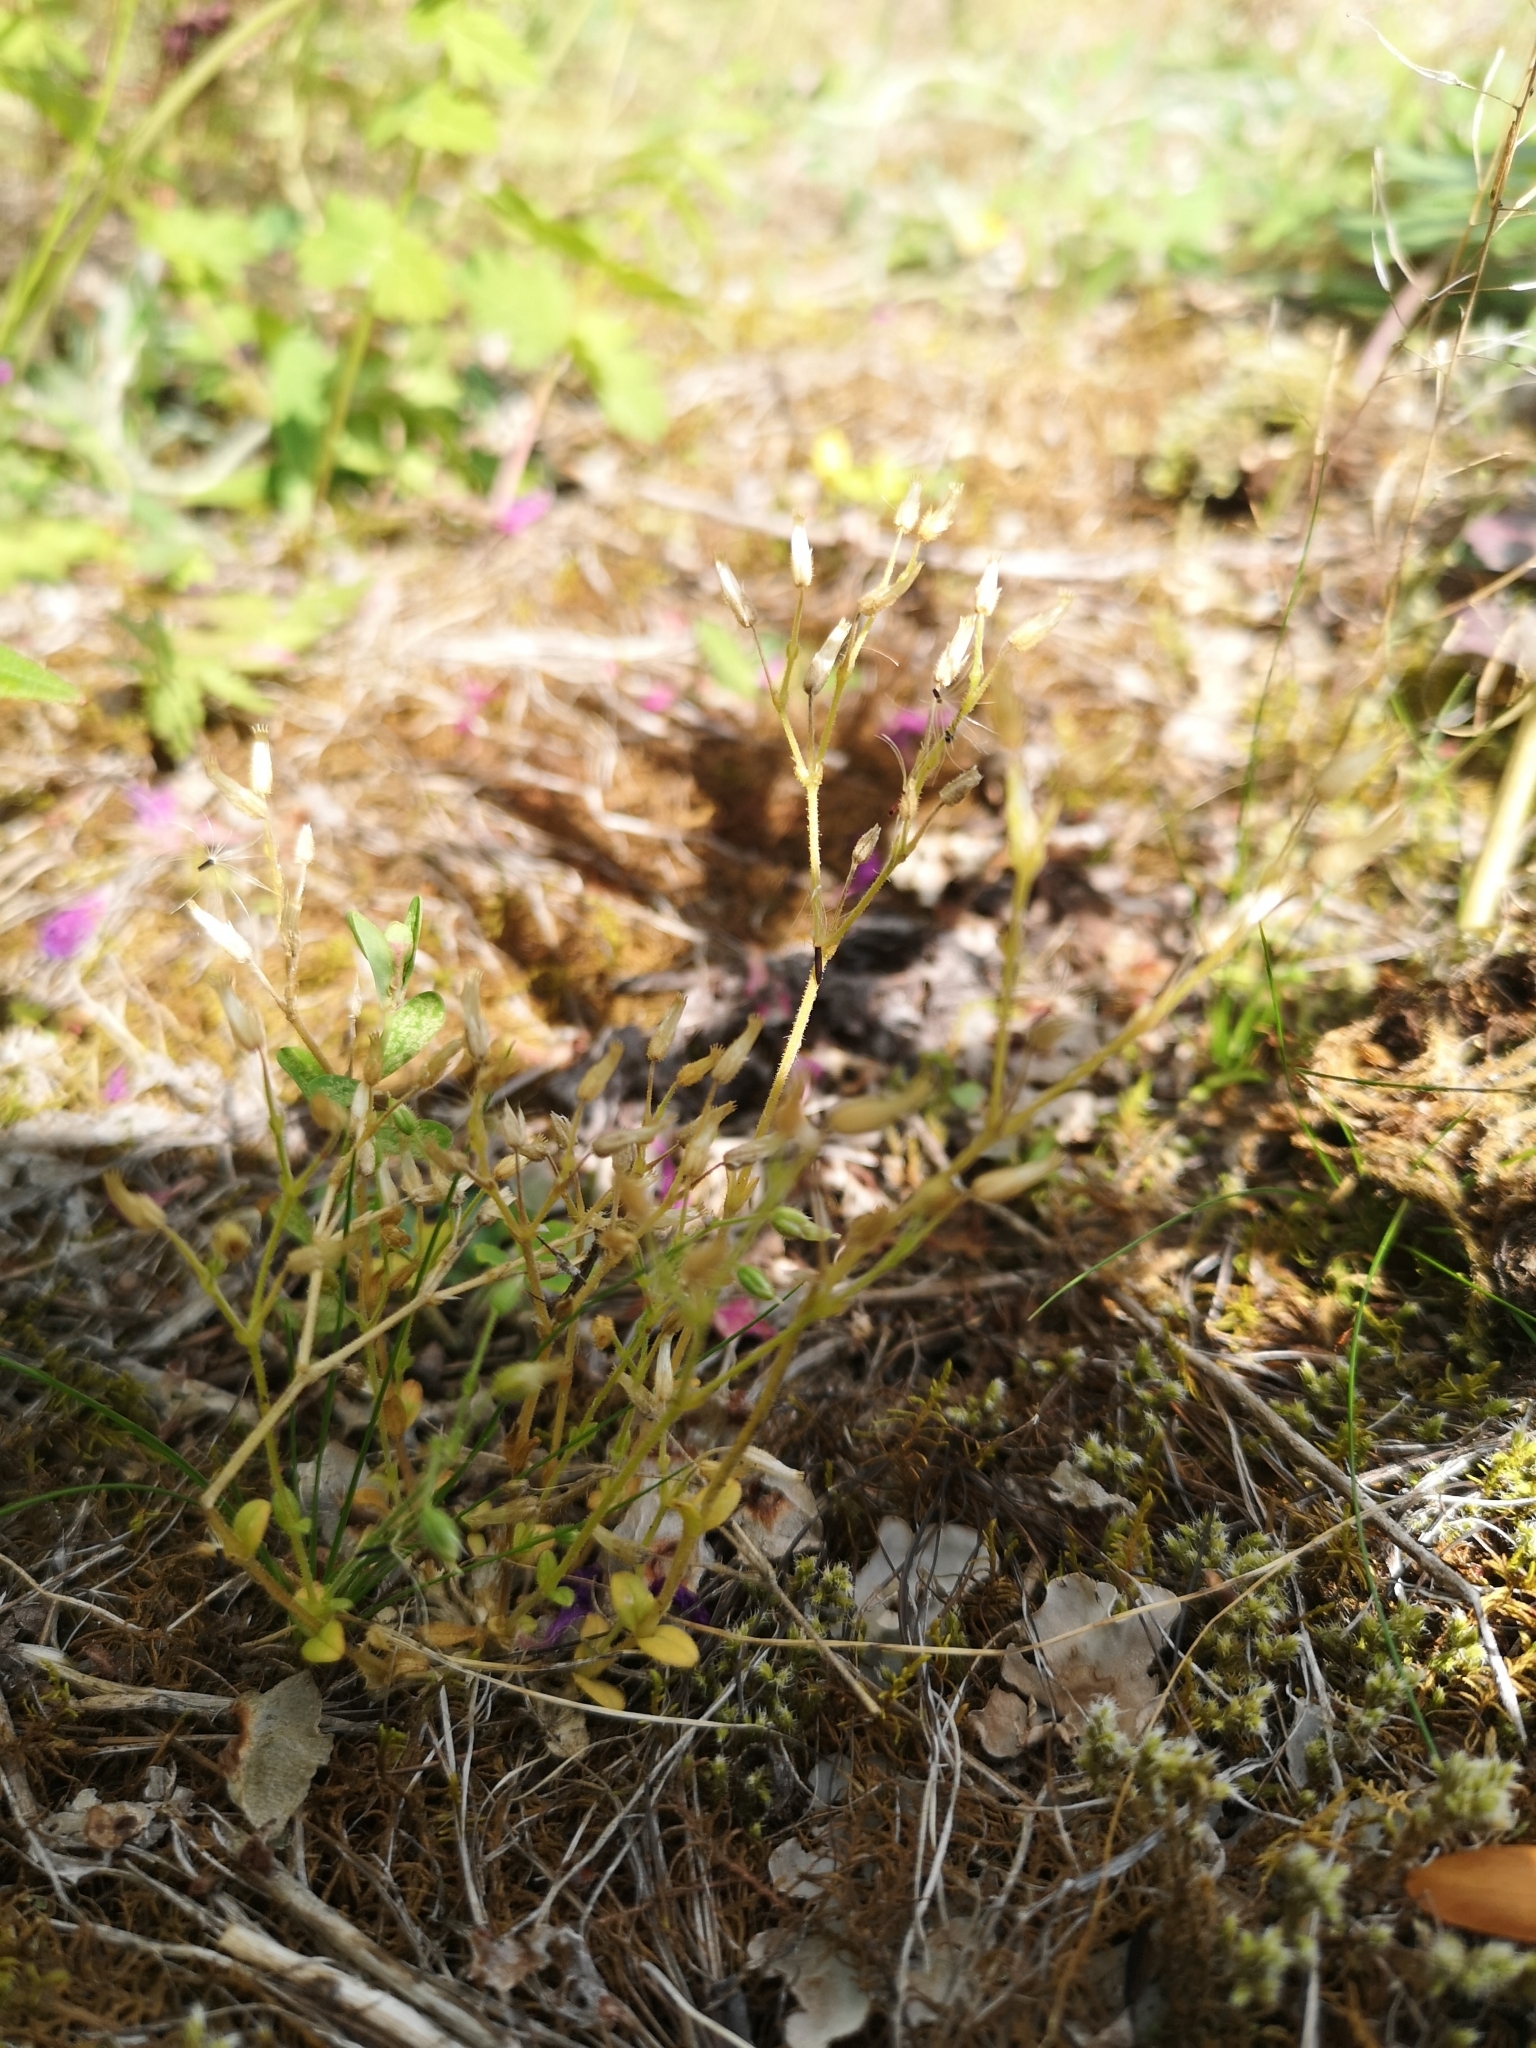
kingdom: Plantae
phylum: Tracheophyta
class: Magnoliopsida
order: Caryophyllales
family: Caryophyllaceae
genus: Cerastium
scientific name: Cerastium semidecandrum
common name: Little mouse-ear
